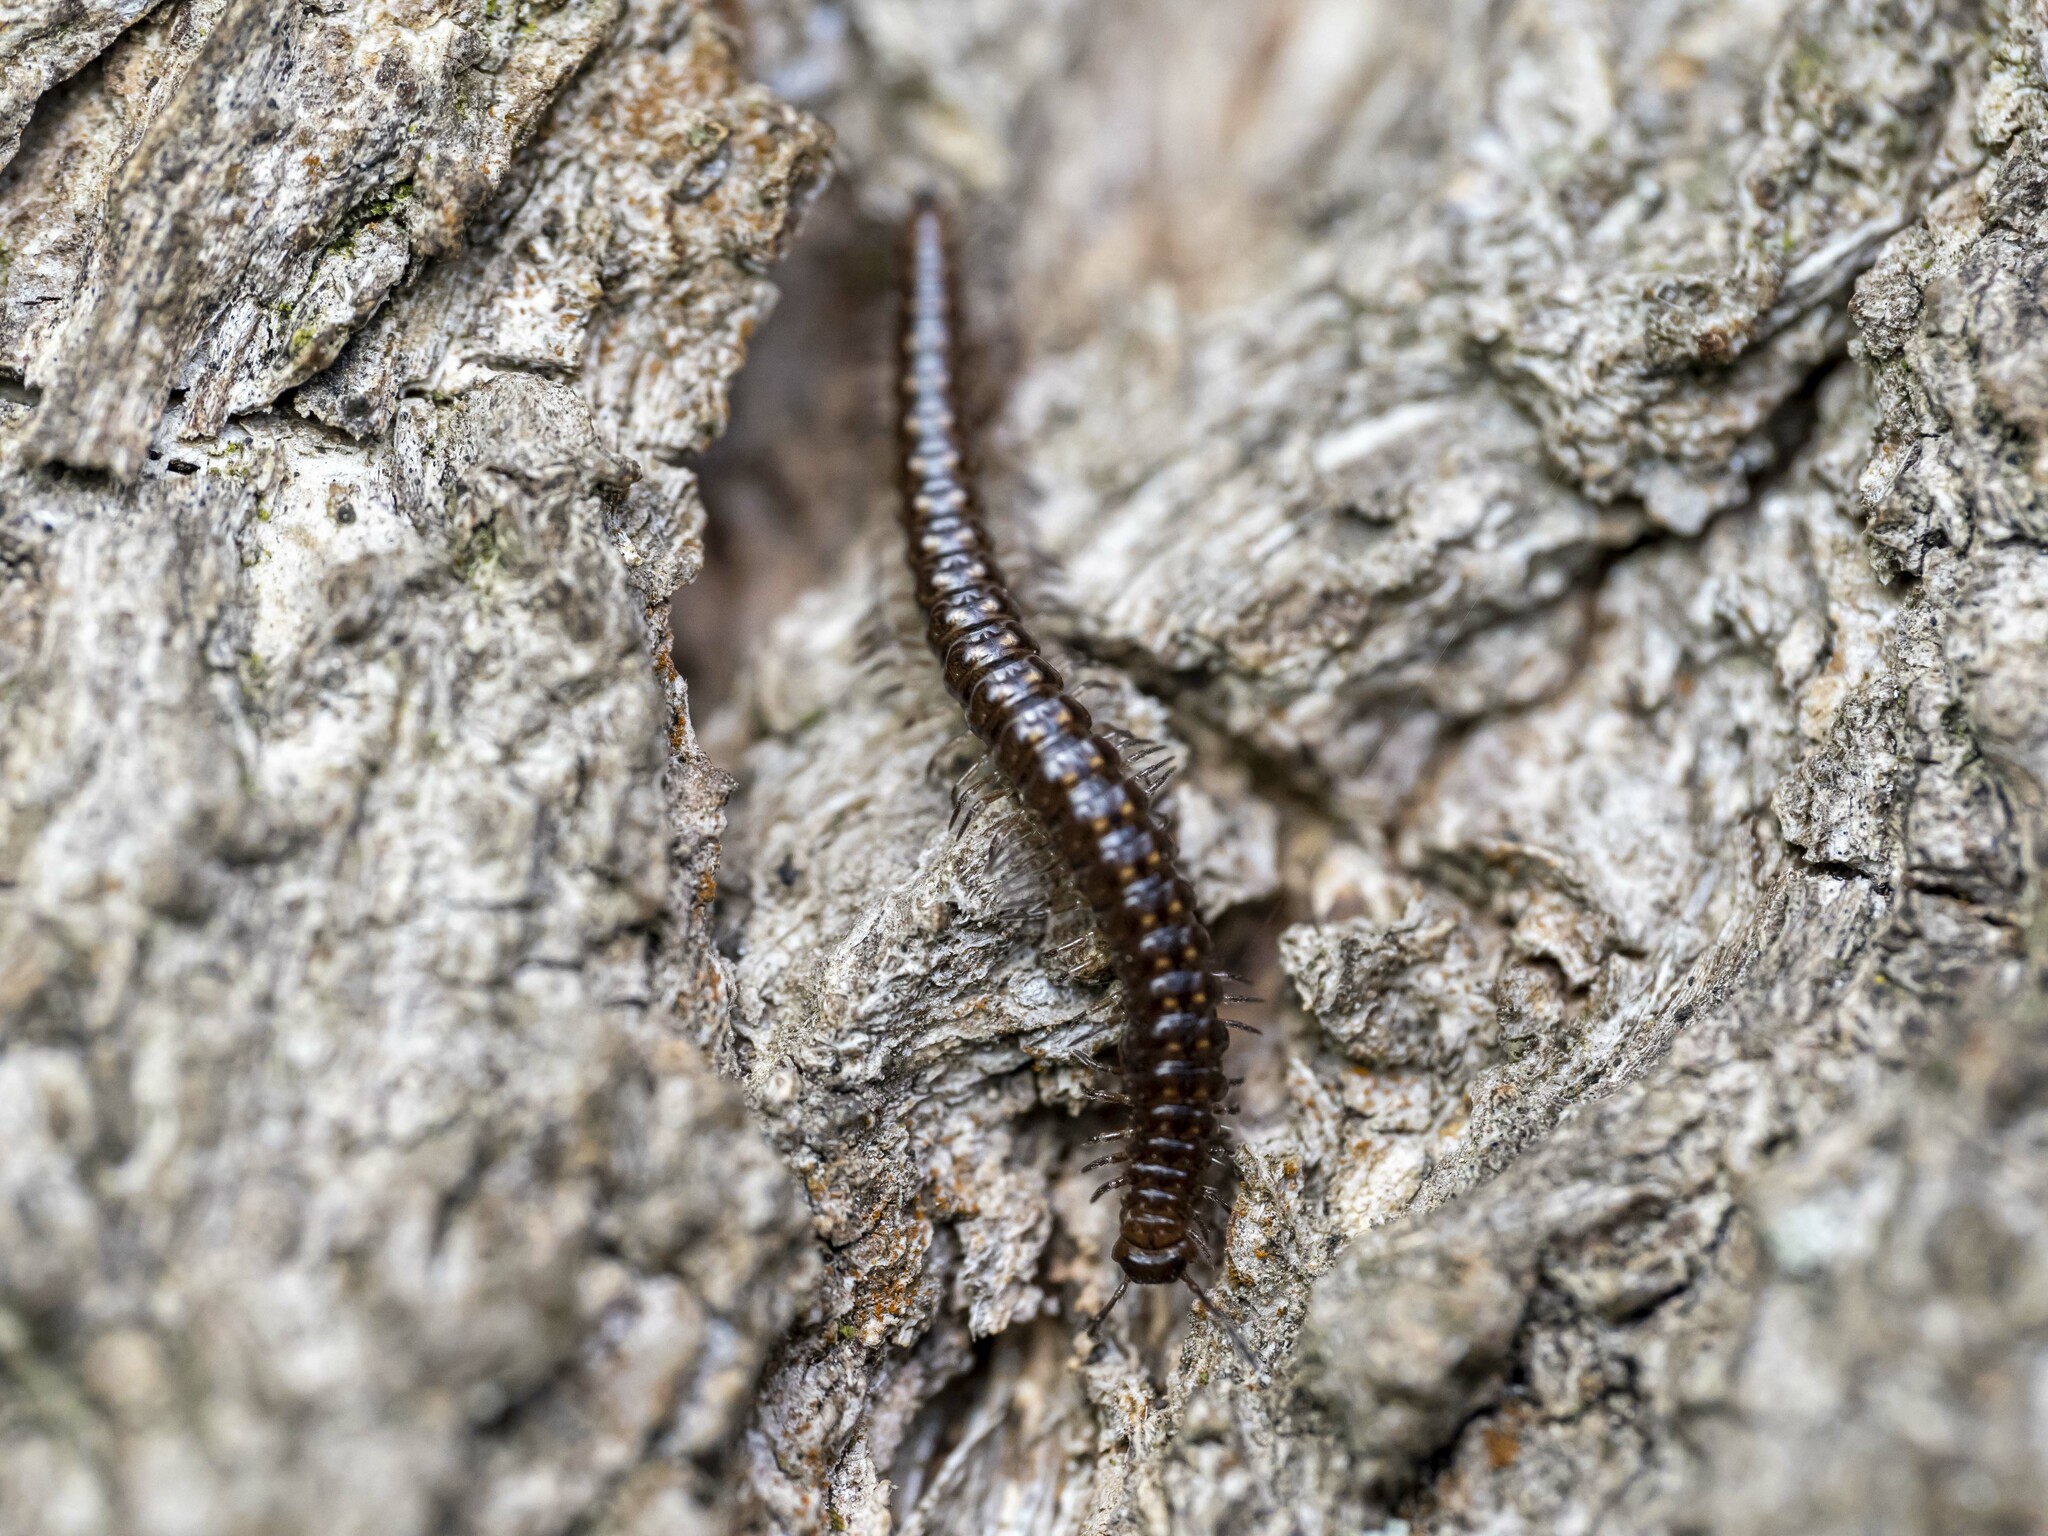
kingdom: Animalia
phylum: Arthropoda
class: Diplopoda
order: Chordeumatida
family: Craspedosomatidae
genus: Craspedosoma
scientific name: Craspedosoma rawlinsii
